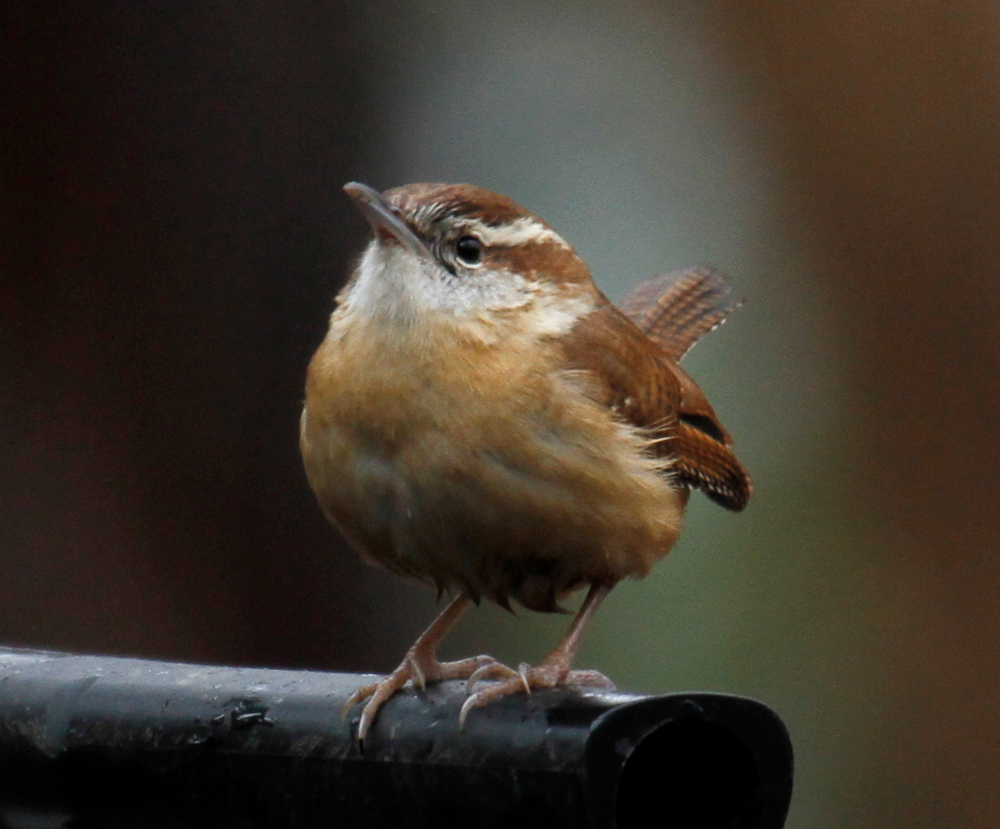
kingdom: Animalia
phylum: Chordata
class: Aves
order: Passeriformes
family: Troglodytidae
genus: Thryothorus
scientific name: Thryothorus ludovicianus
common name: Carolina wren
